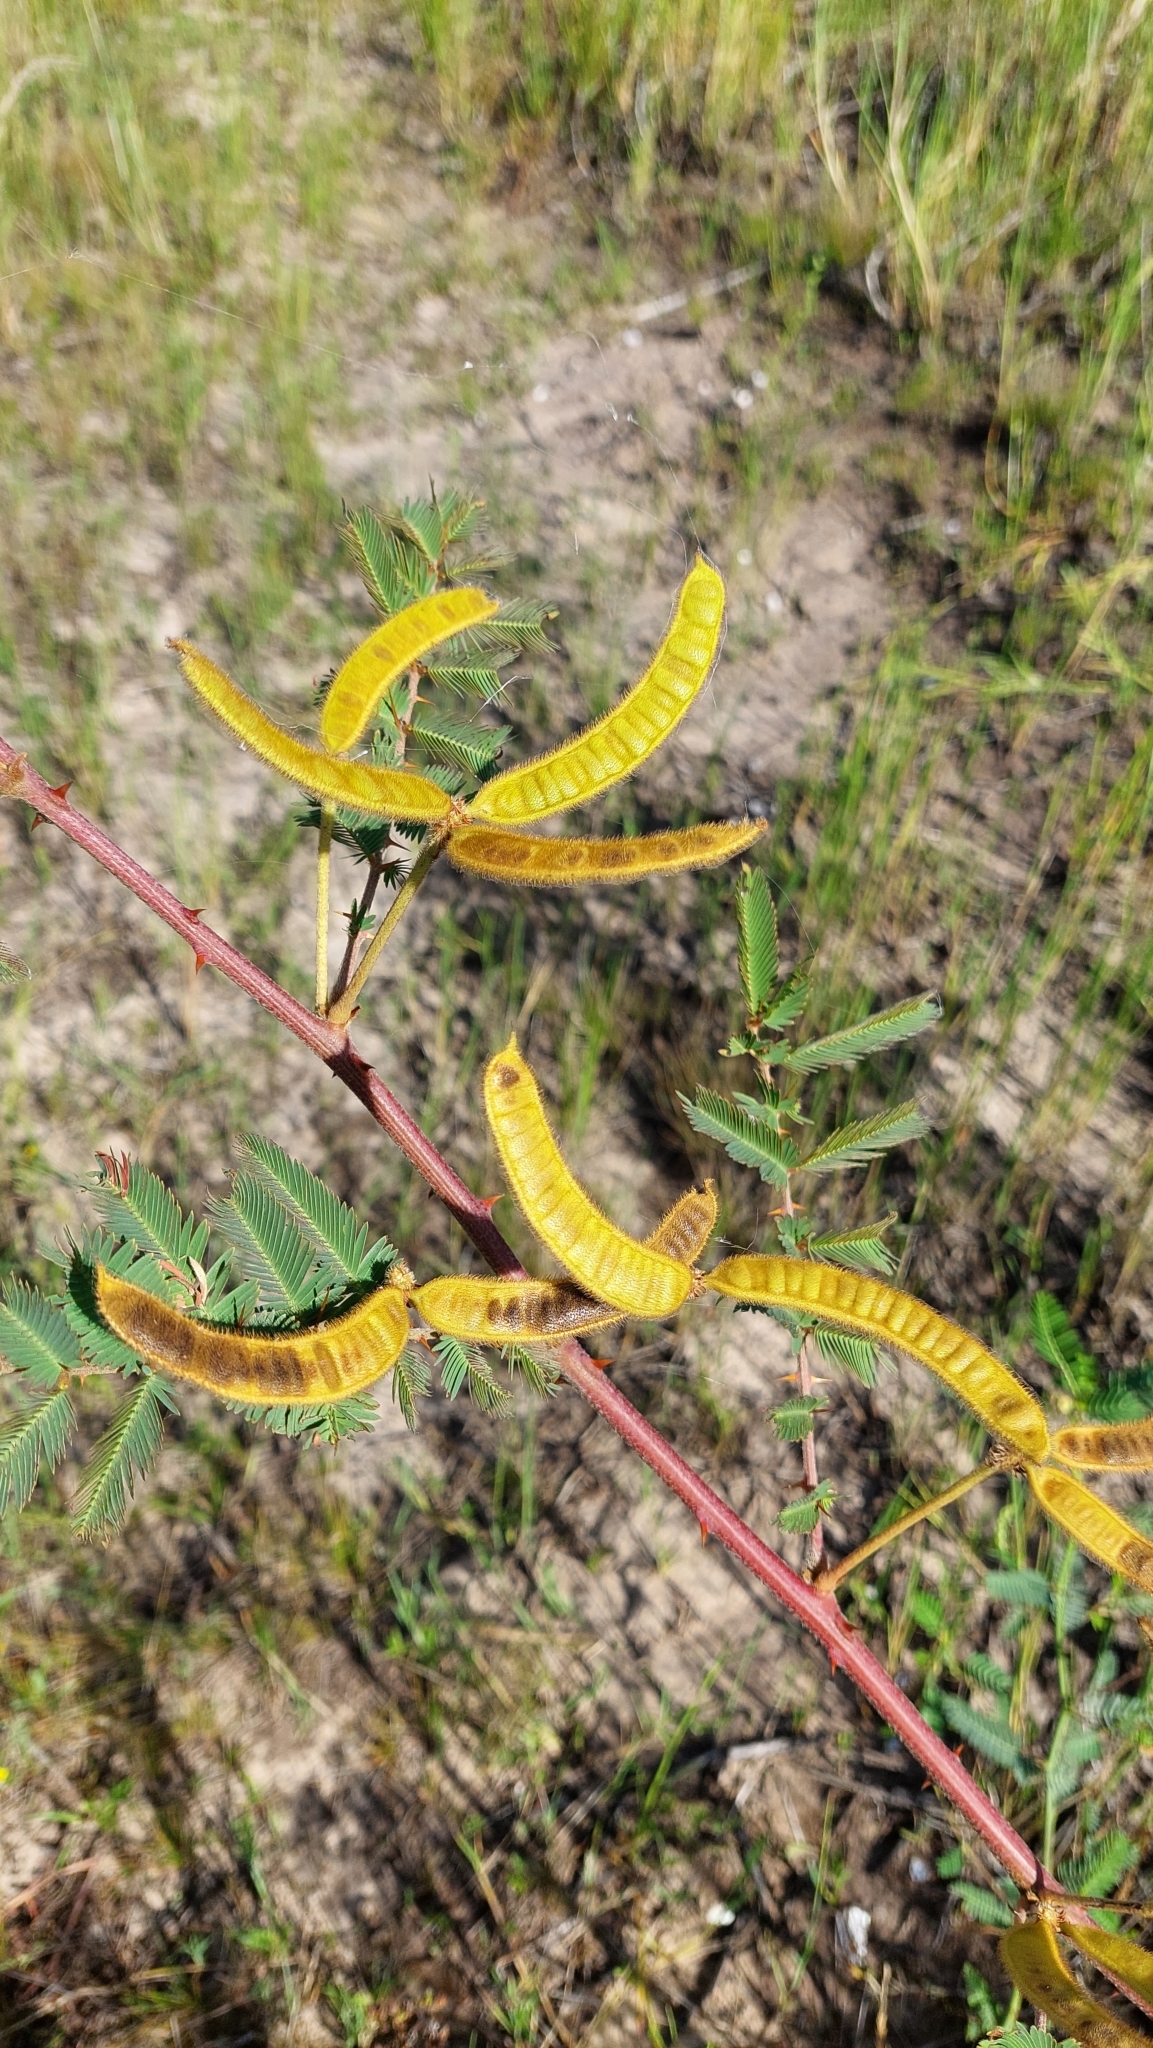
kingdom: Plantae
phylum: Tracheophyta
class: Magnoliopsida
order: Fabales
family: Fabaceae
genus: Mimosa
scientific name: Mimosa pigra
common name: Black mimosa
